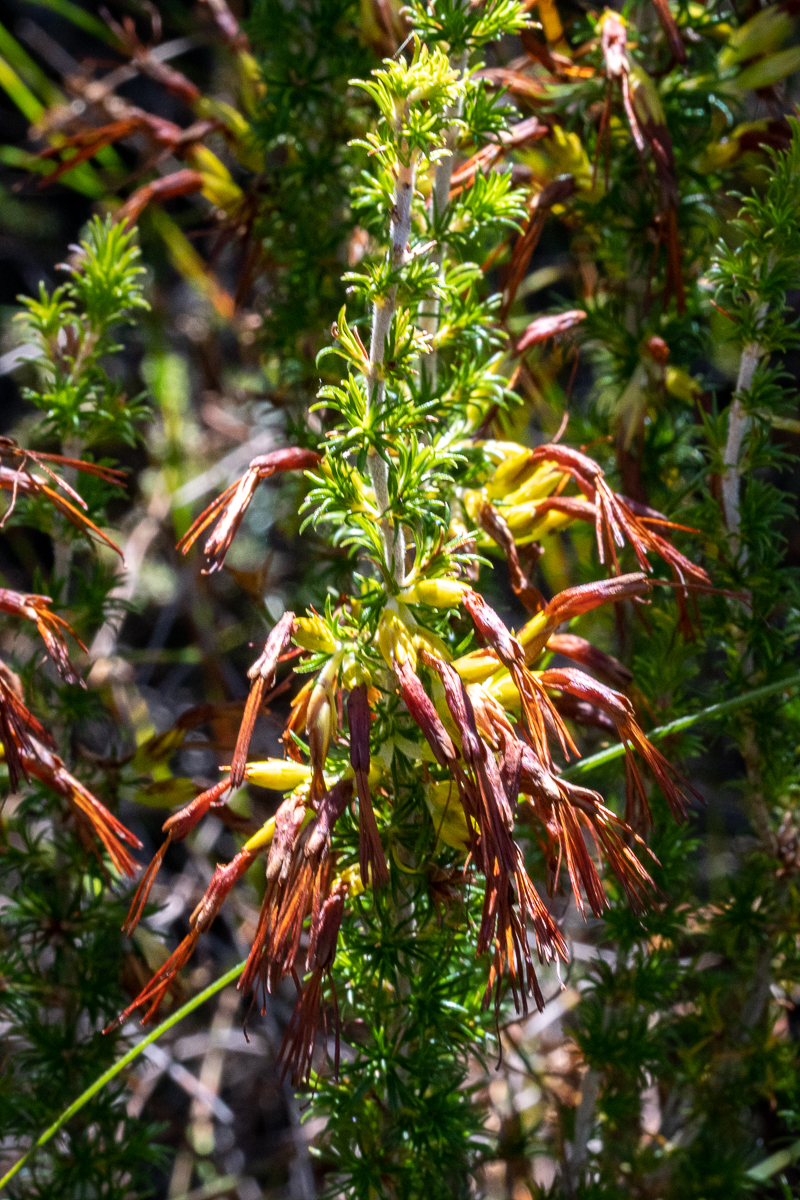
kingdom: Plantae
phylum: Tracheophyta
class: Magnoliopsida
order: Ericales
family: Ericaceae
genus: Erica
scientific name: Erica coccinea
